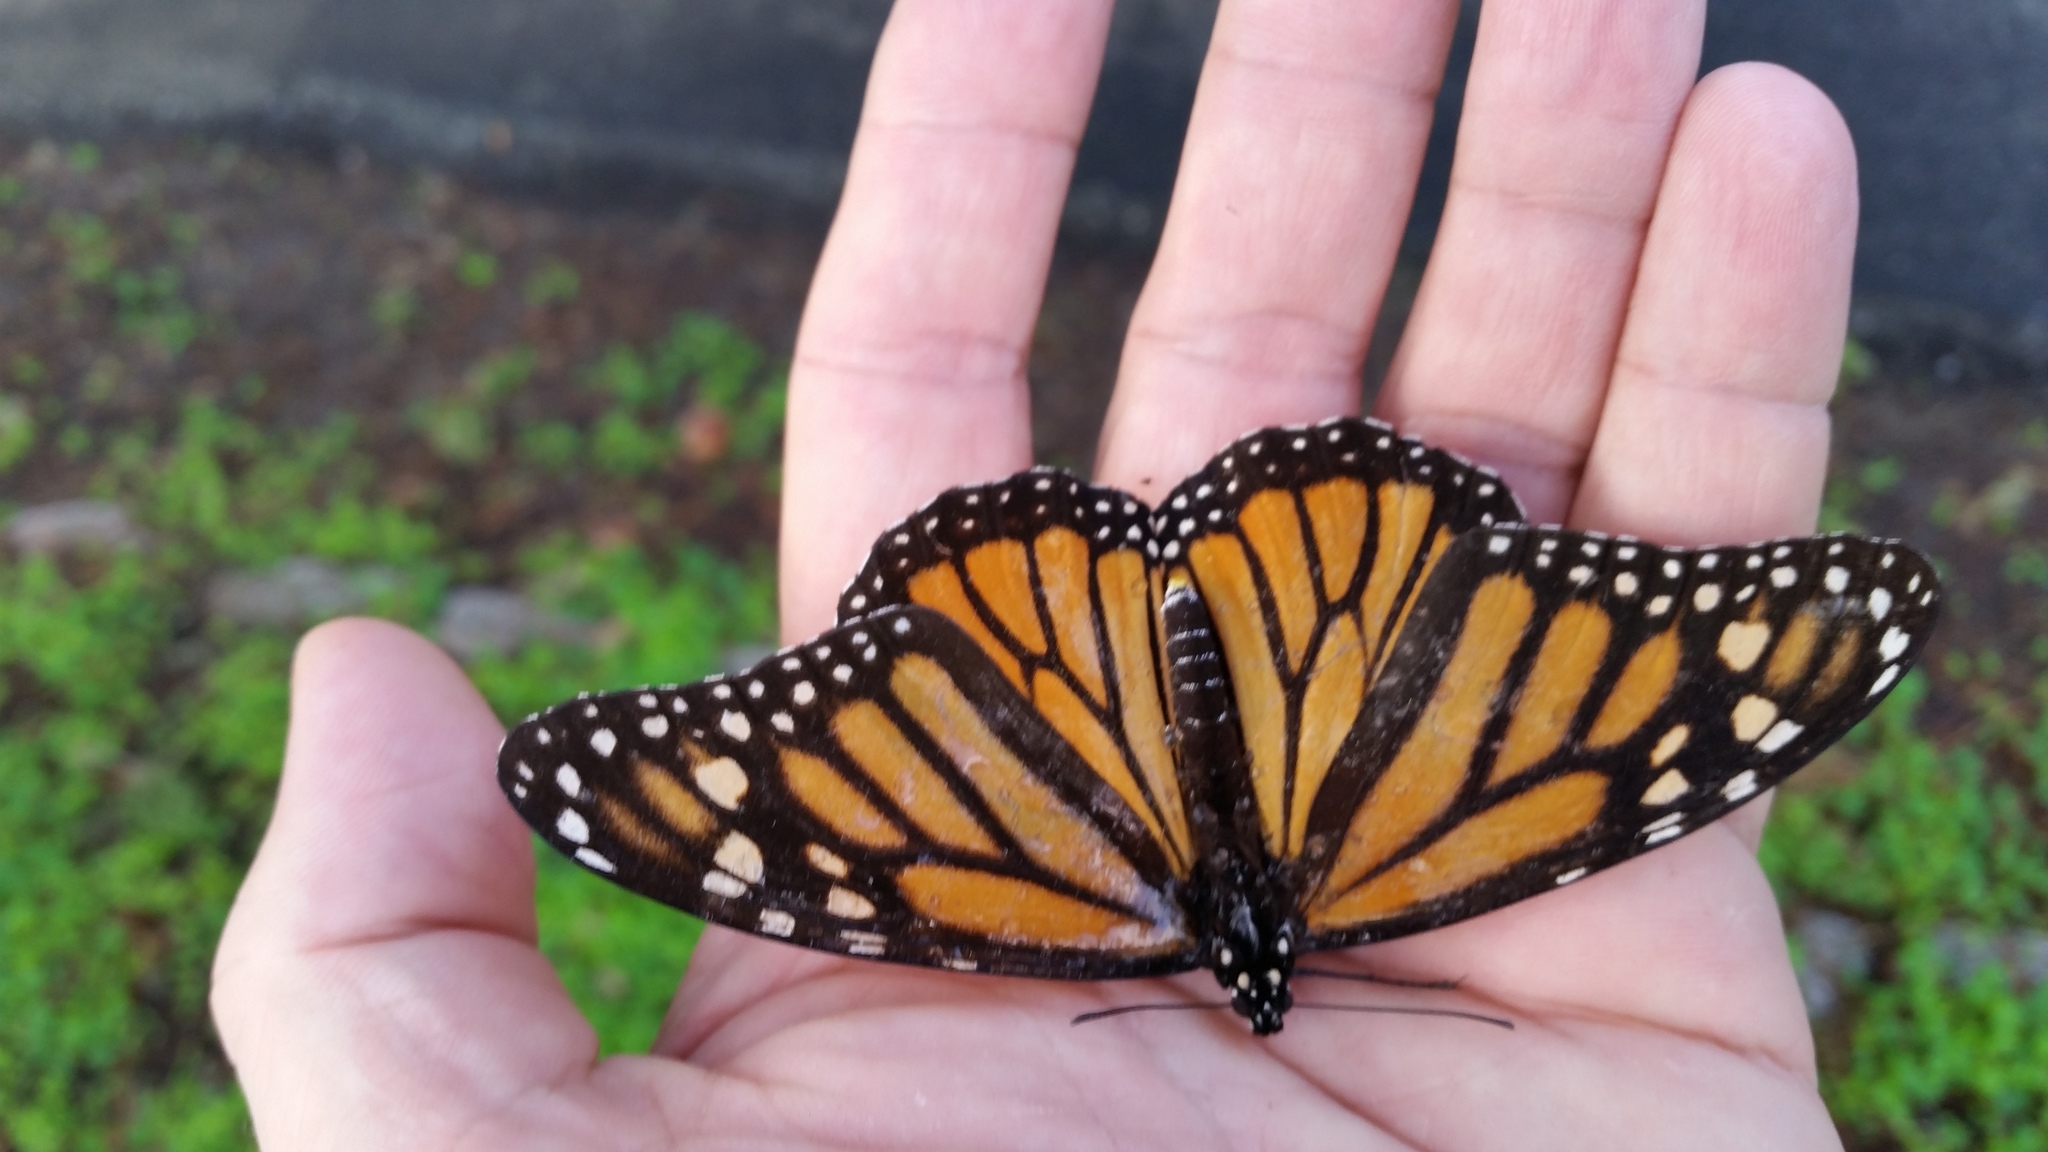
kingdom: Animalia
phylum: Arthropoda
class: Insecta
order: Lepidoptera
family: Nymphalidae
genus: Danaus
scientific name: Danaus plexippus
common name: Monarch
